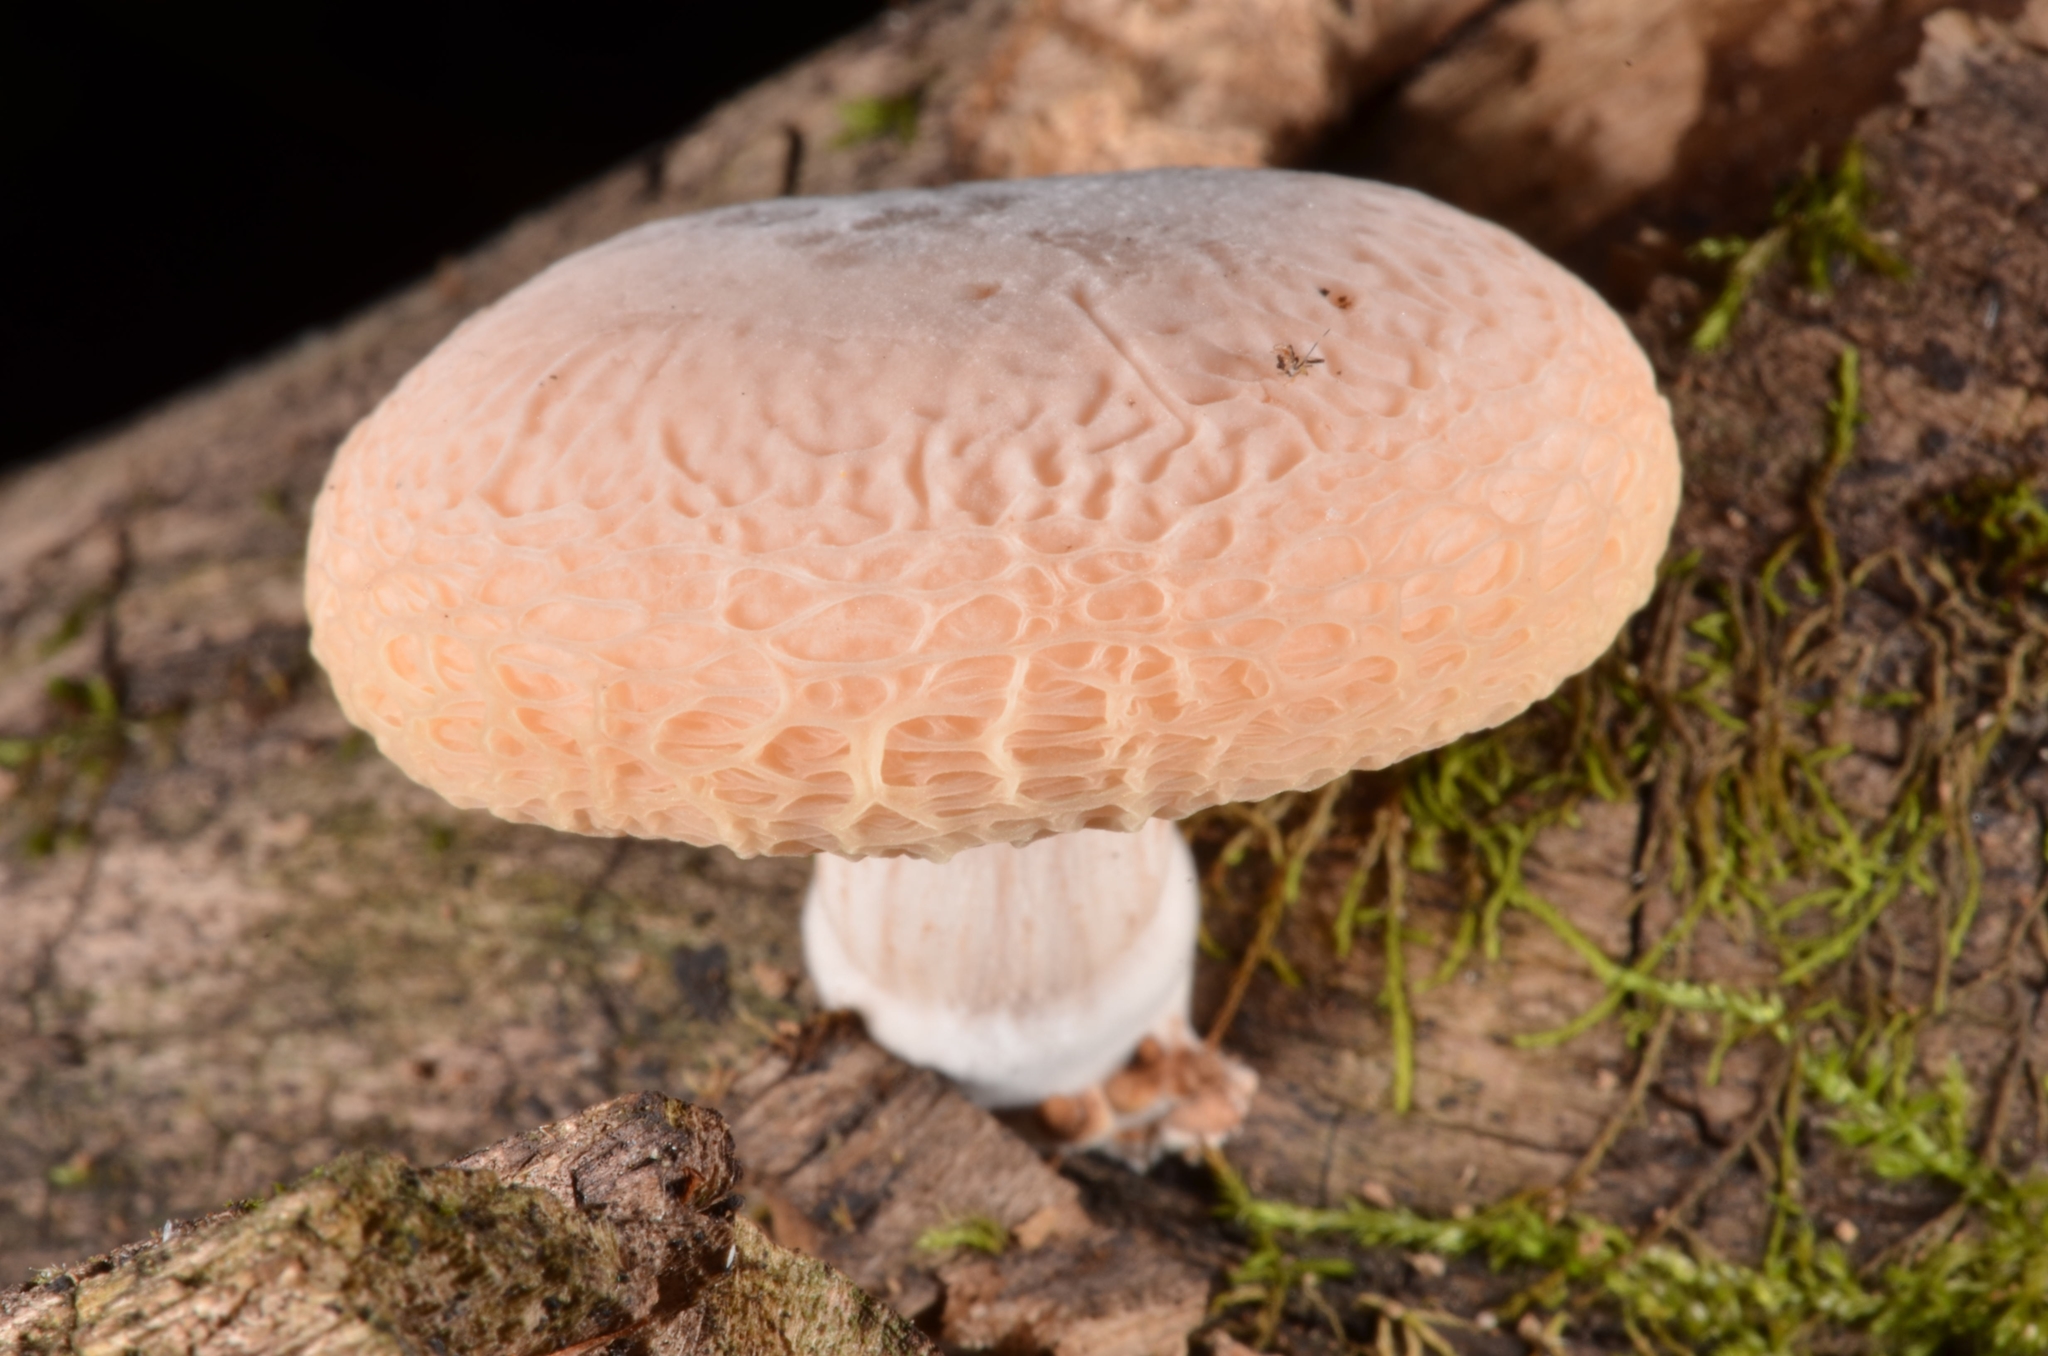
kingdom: Fungi
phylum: Basidiomycota
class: Agaricomycetes
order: Agaricales
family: Physalacriaceae
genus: Rhodotus
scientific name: Rhodotus palmatus
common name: Wrinkled peach
